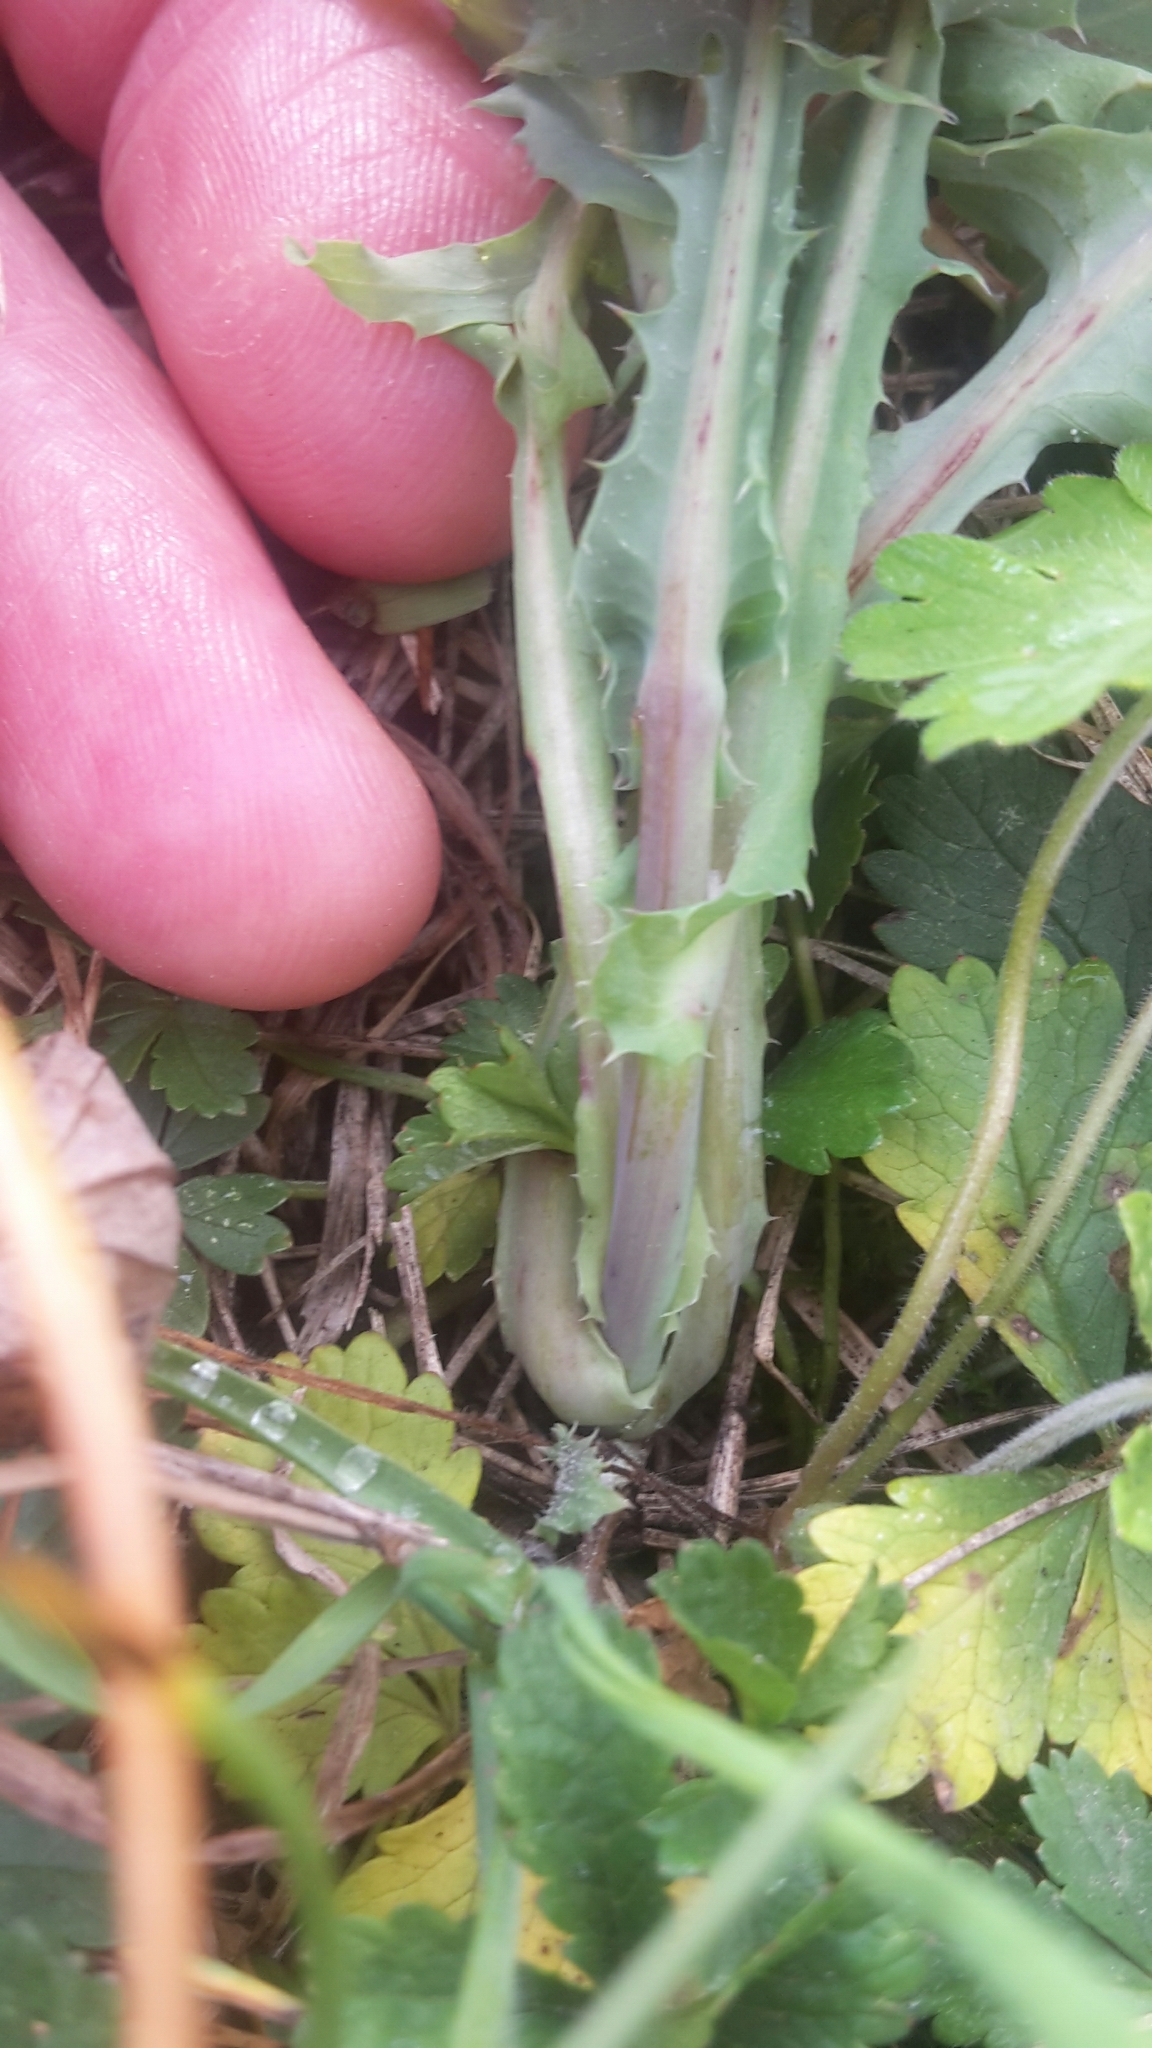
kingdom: Plantae
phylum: Tracheophyta
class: Magnoliopsida
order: Asterales
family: Asteraceae
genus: Sonchus
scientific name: Sonchus oleraceus
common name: Common sowthistle
